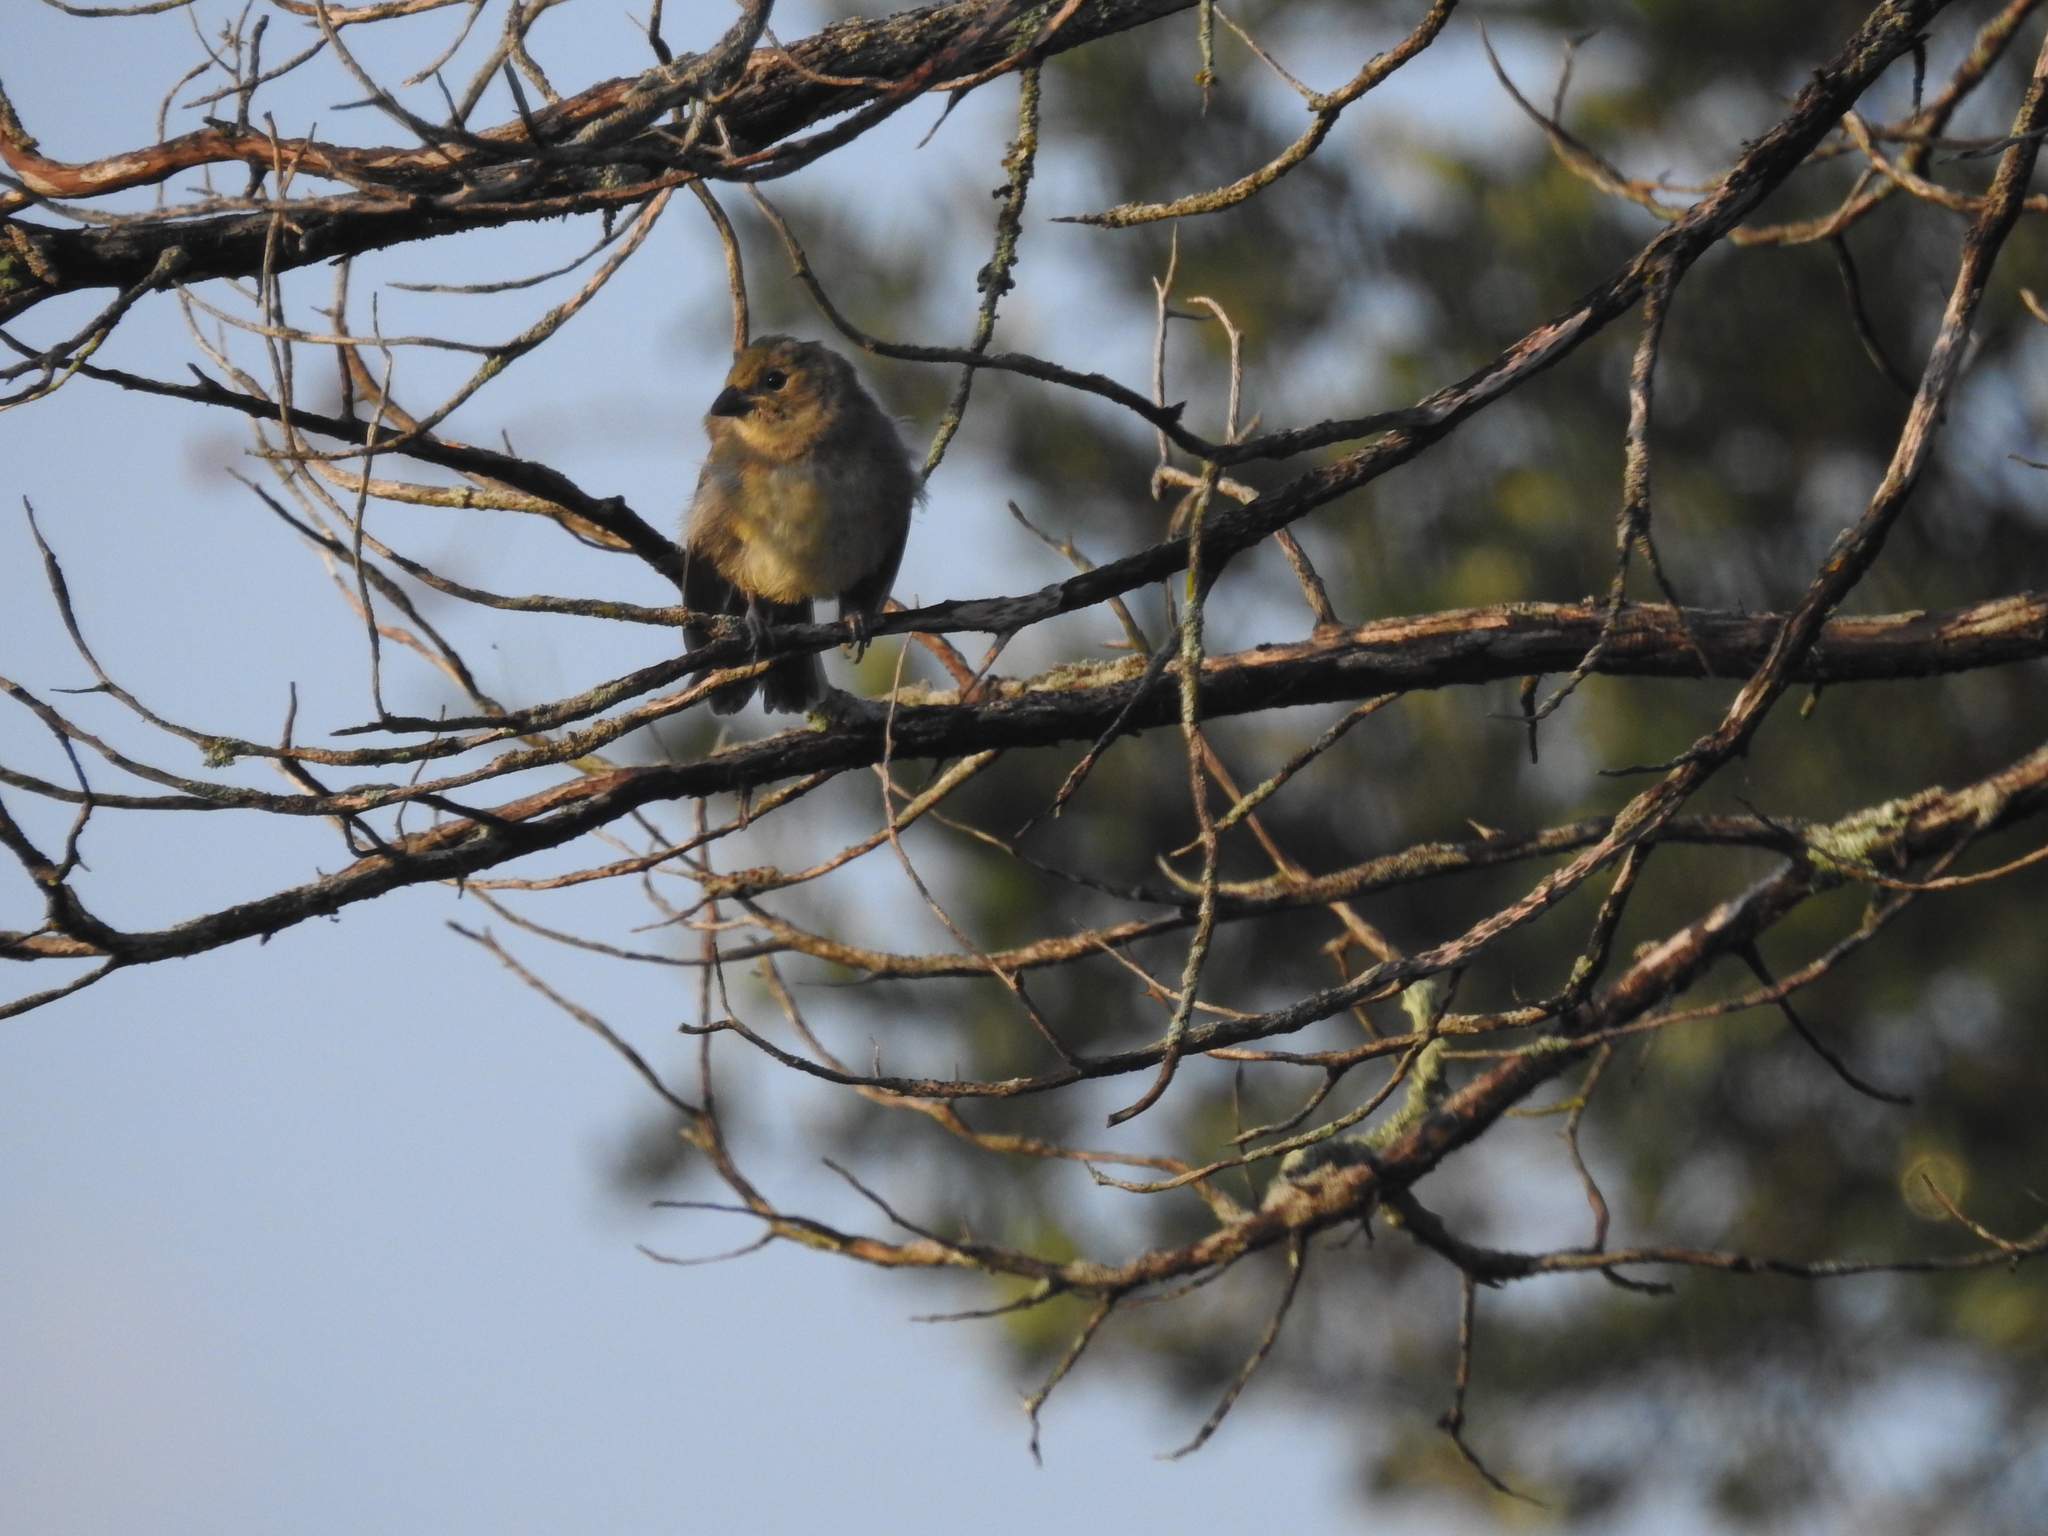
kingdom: Animalia
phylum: Chordata
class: Aves
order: Passeriformes
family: Cardinalidae
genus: Passerina
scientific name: Passerina cyanea
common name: Indigo bunting
